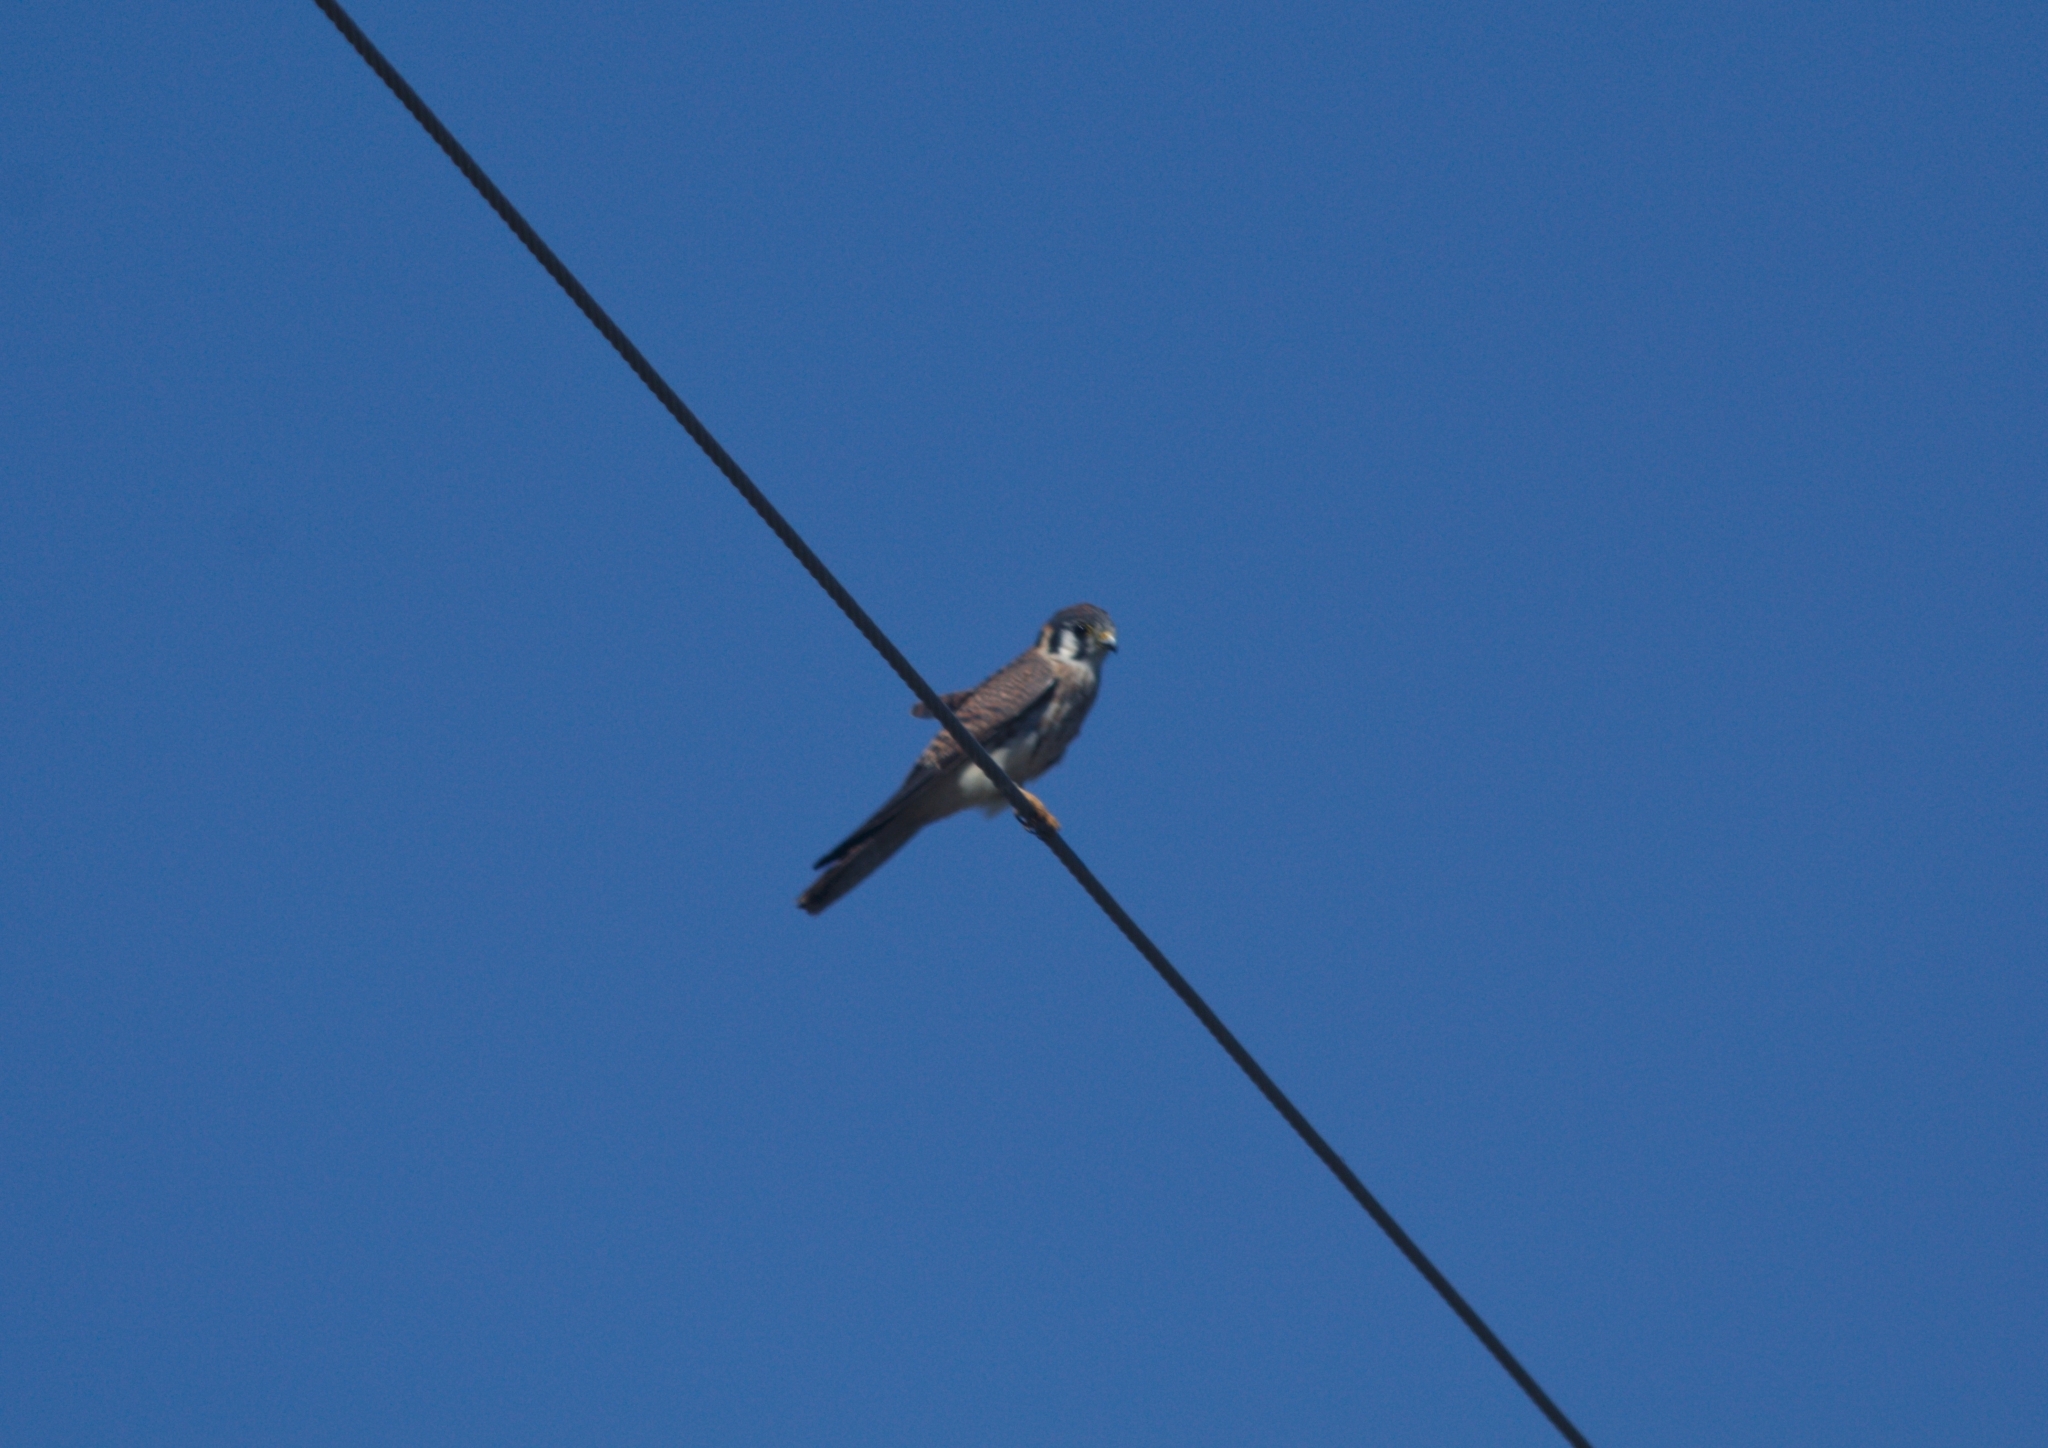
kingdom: Animalia
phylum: Chordata
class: Aves
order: Falconiformes
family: Falconidae
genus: Falco
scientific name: Falco sparverius
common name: American kestrel
